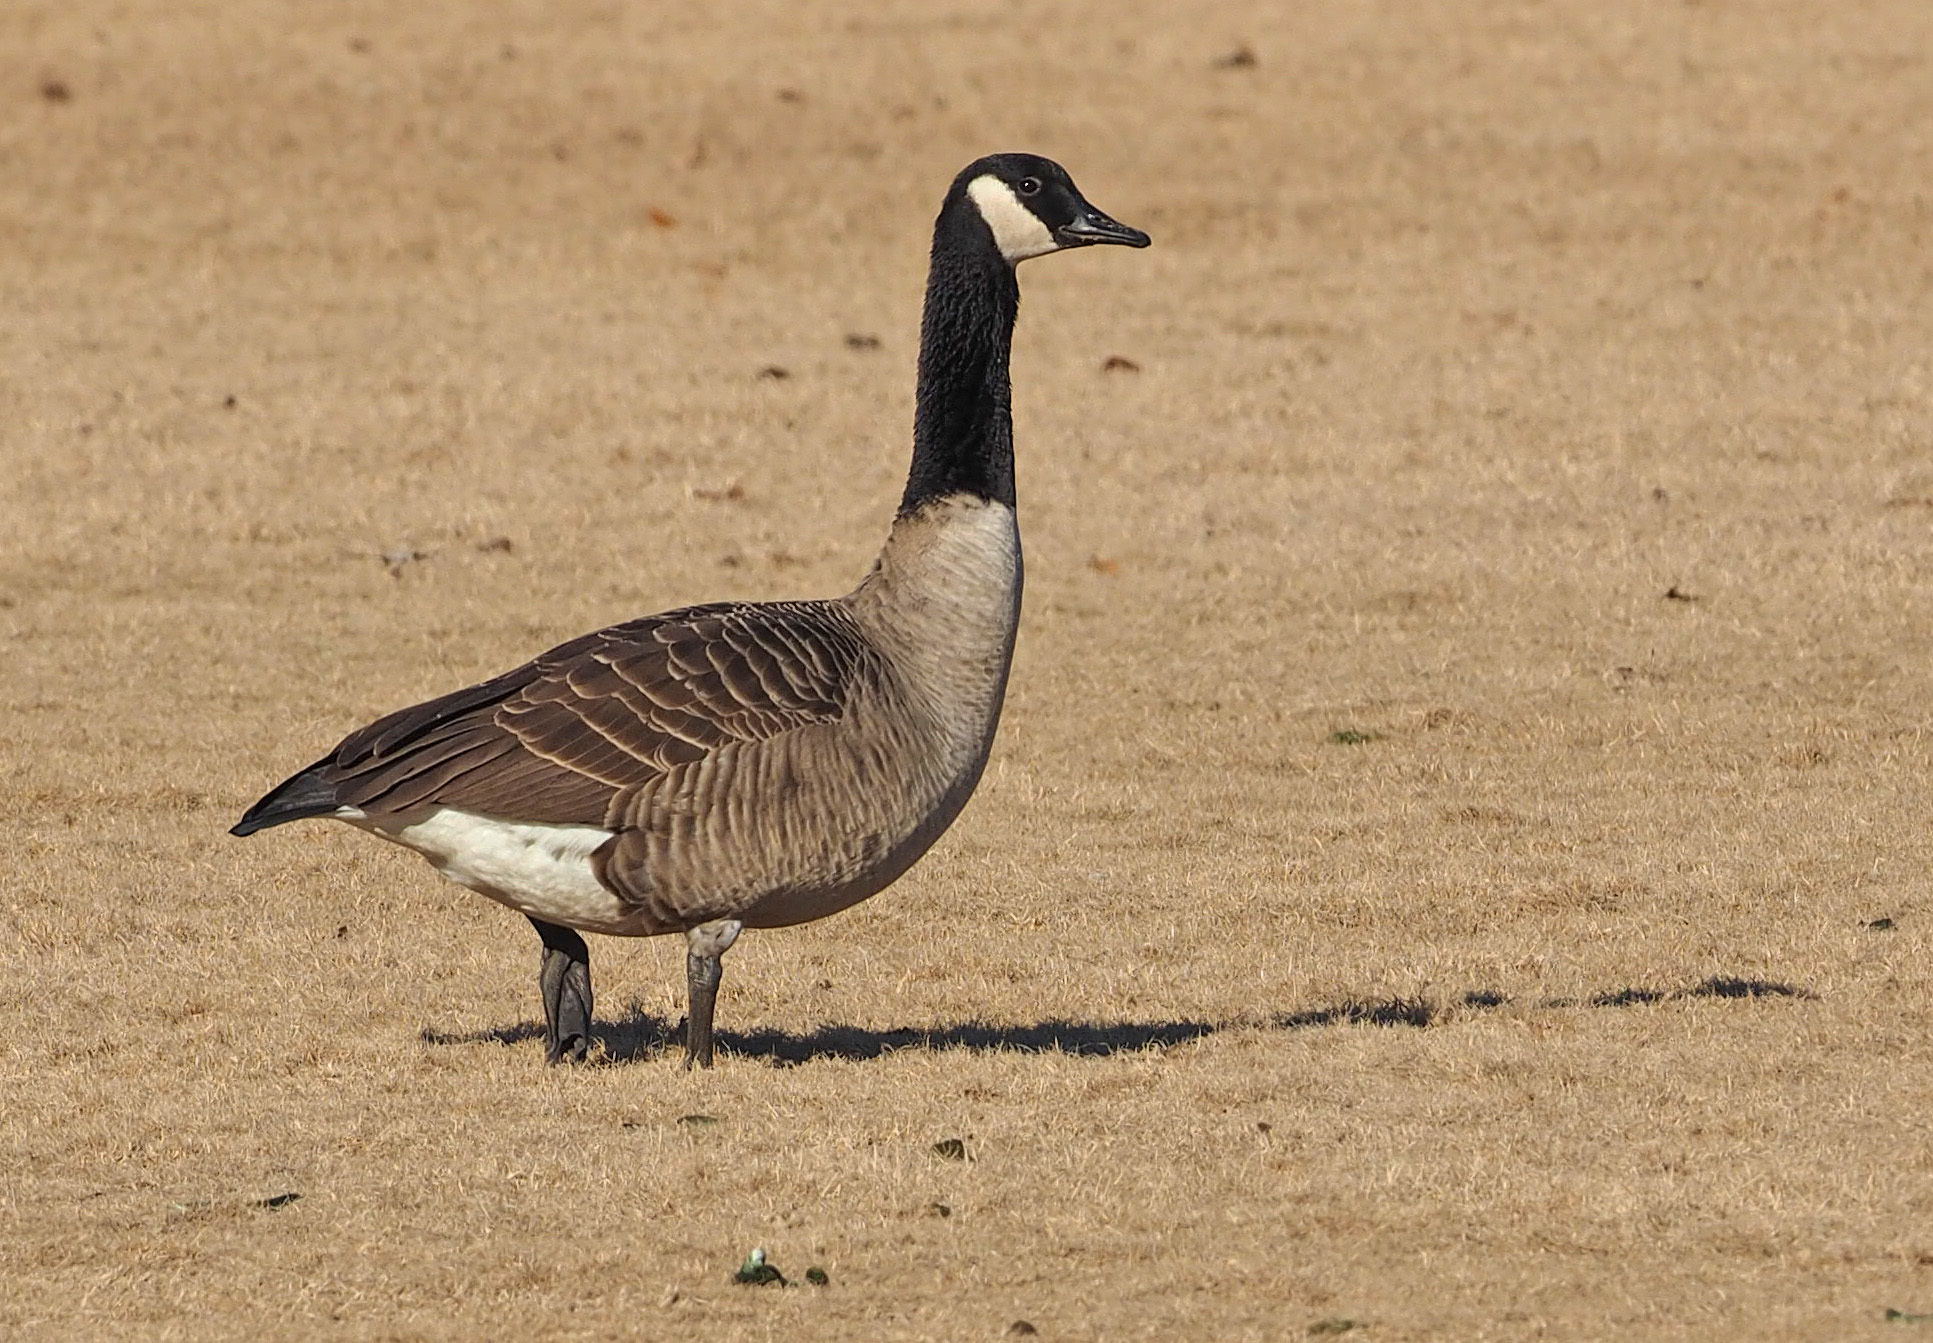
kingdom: Animalia
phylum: Chordata
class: Aves
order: Anseriformes
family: Anatidae
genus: Branta
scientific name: Branta canadensis
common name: Canada goose
